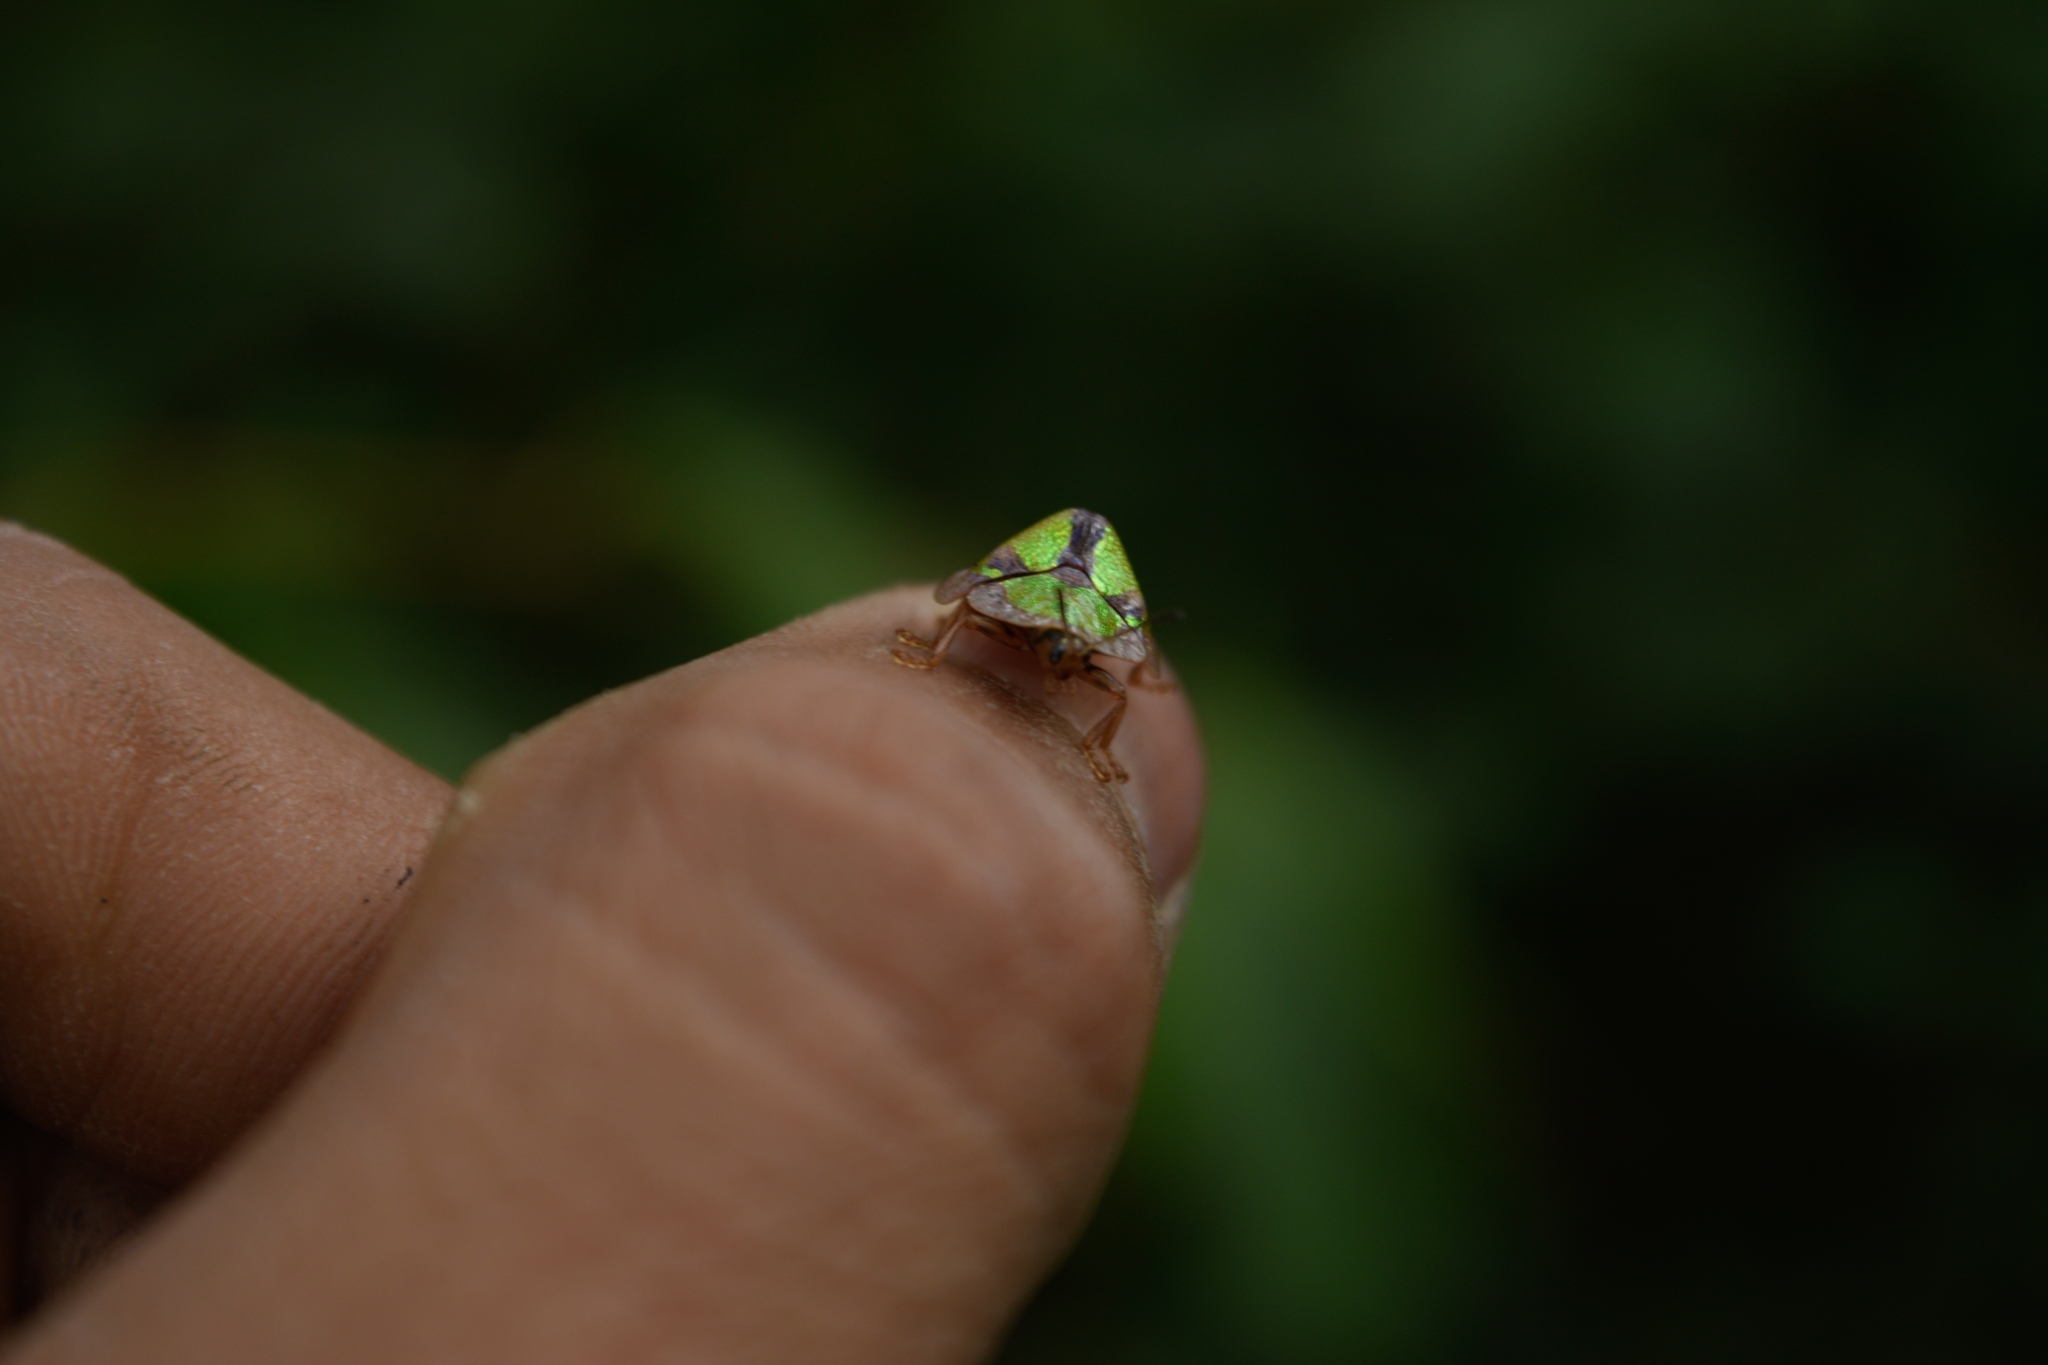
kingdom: Animalia
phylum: Arthropoda
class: Insecta
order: Coleoptera
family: Chrysomelidae
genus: Physonota
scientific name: Physonota nitidicollis
